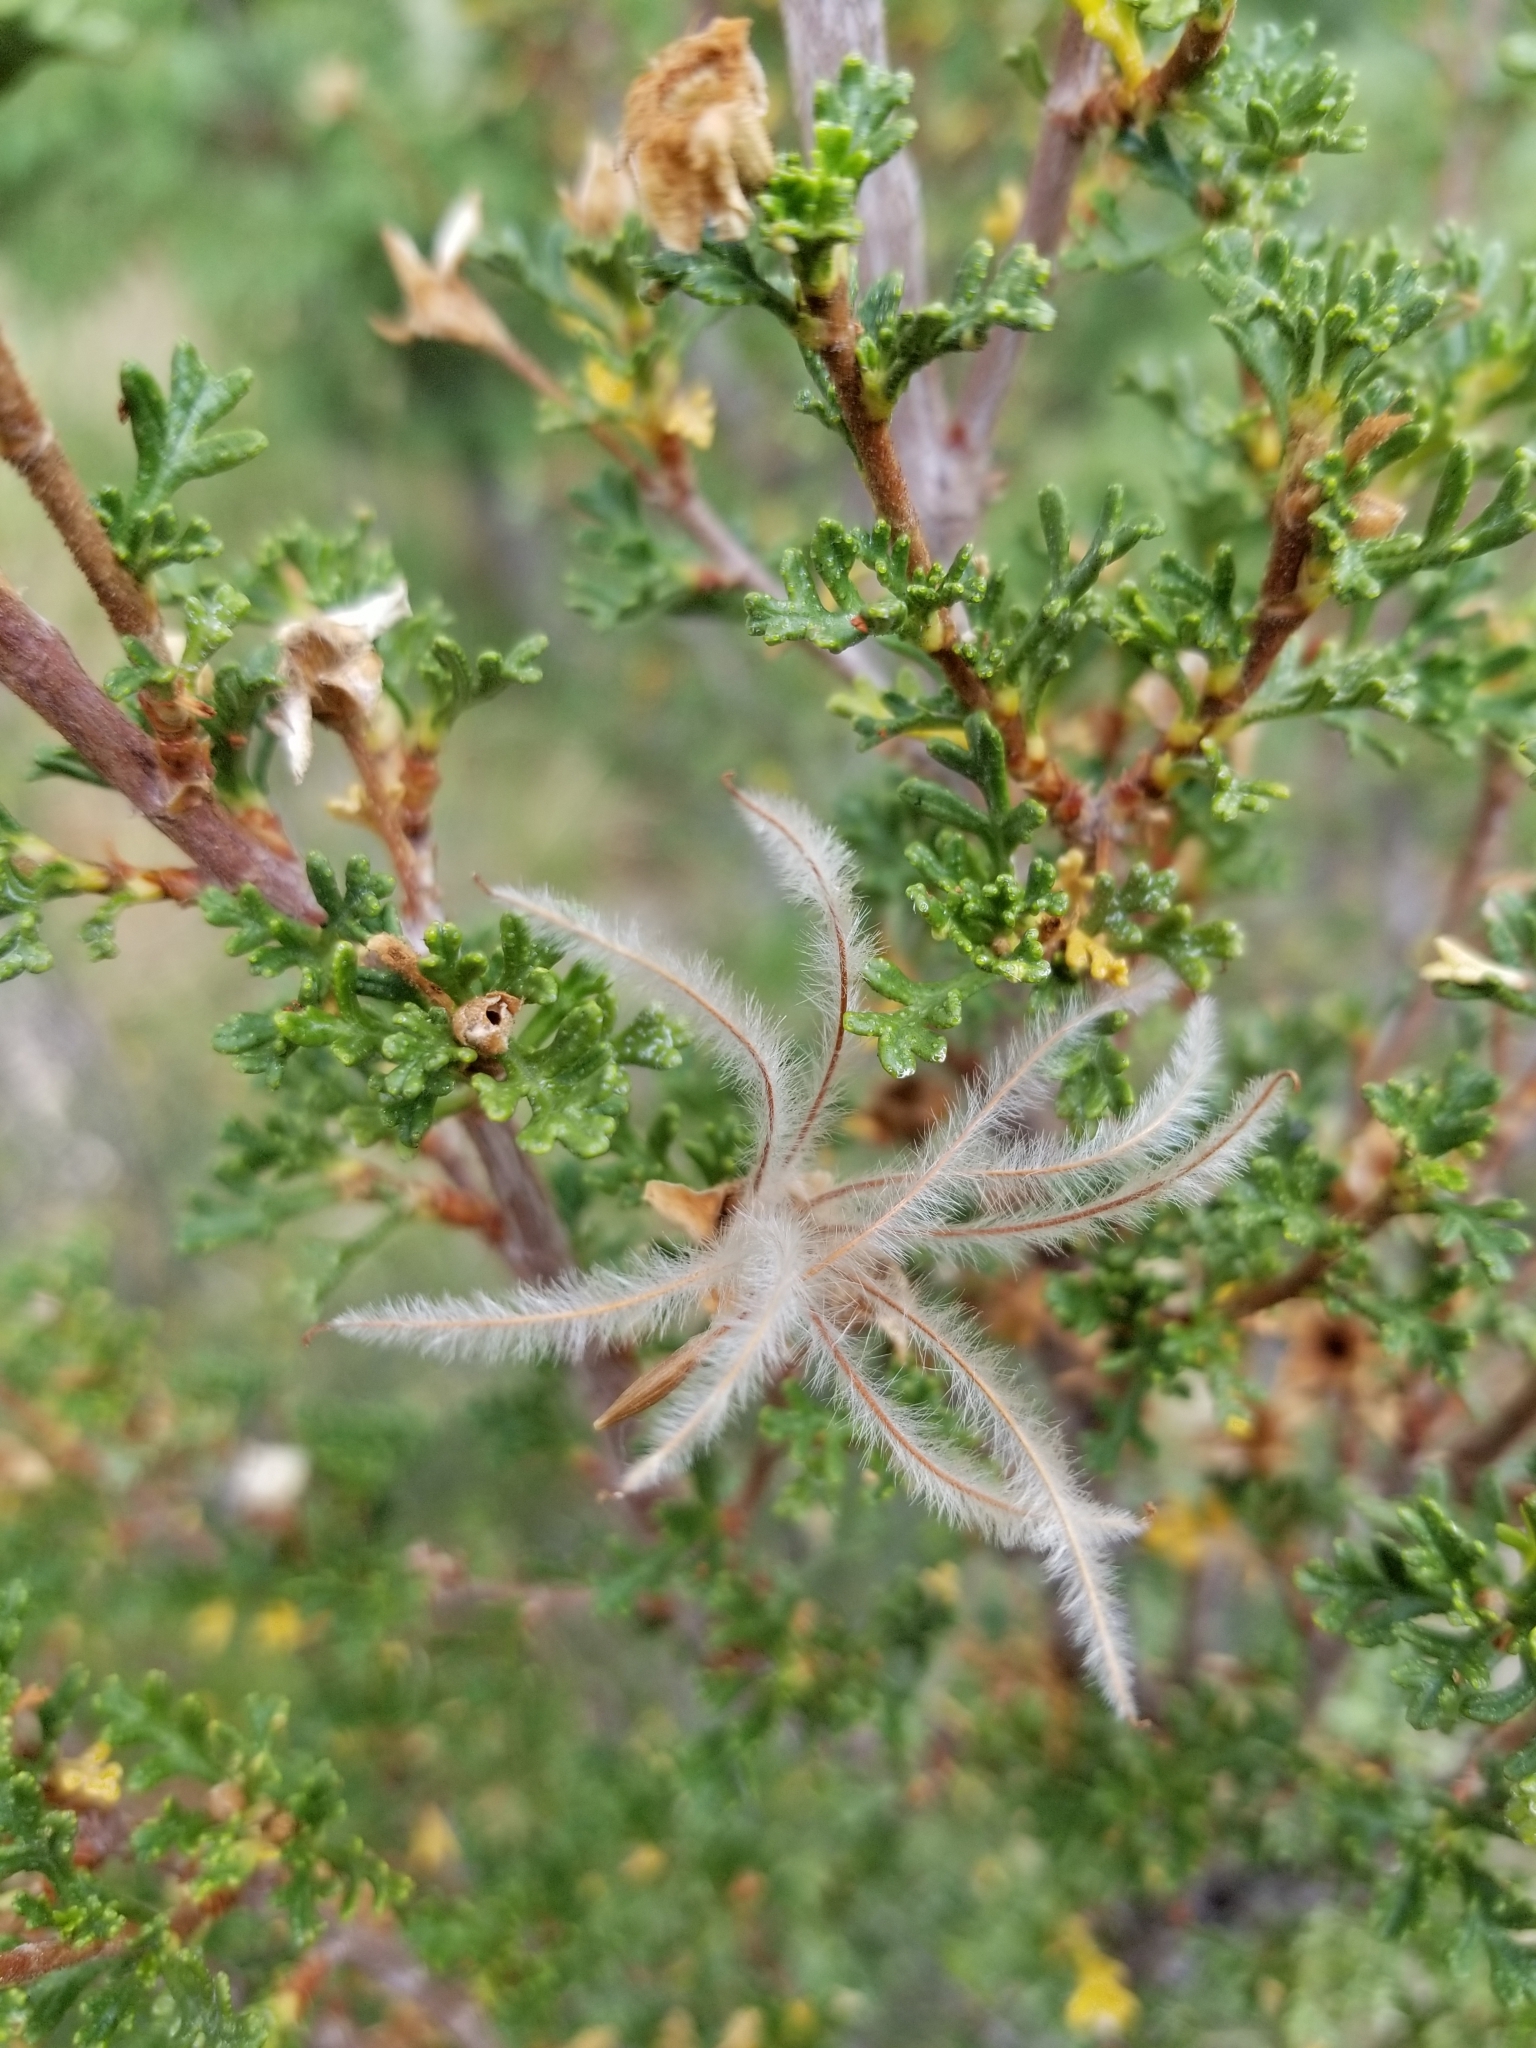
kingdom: Plantae
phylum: Tracheophyta
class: Magnoliopsida
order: Rosales
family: Rosaceae
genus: Purshia
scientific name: Purshia stansburiana
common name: Stansbury's cliffrose
